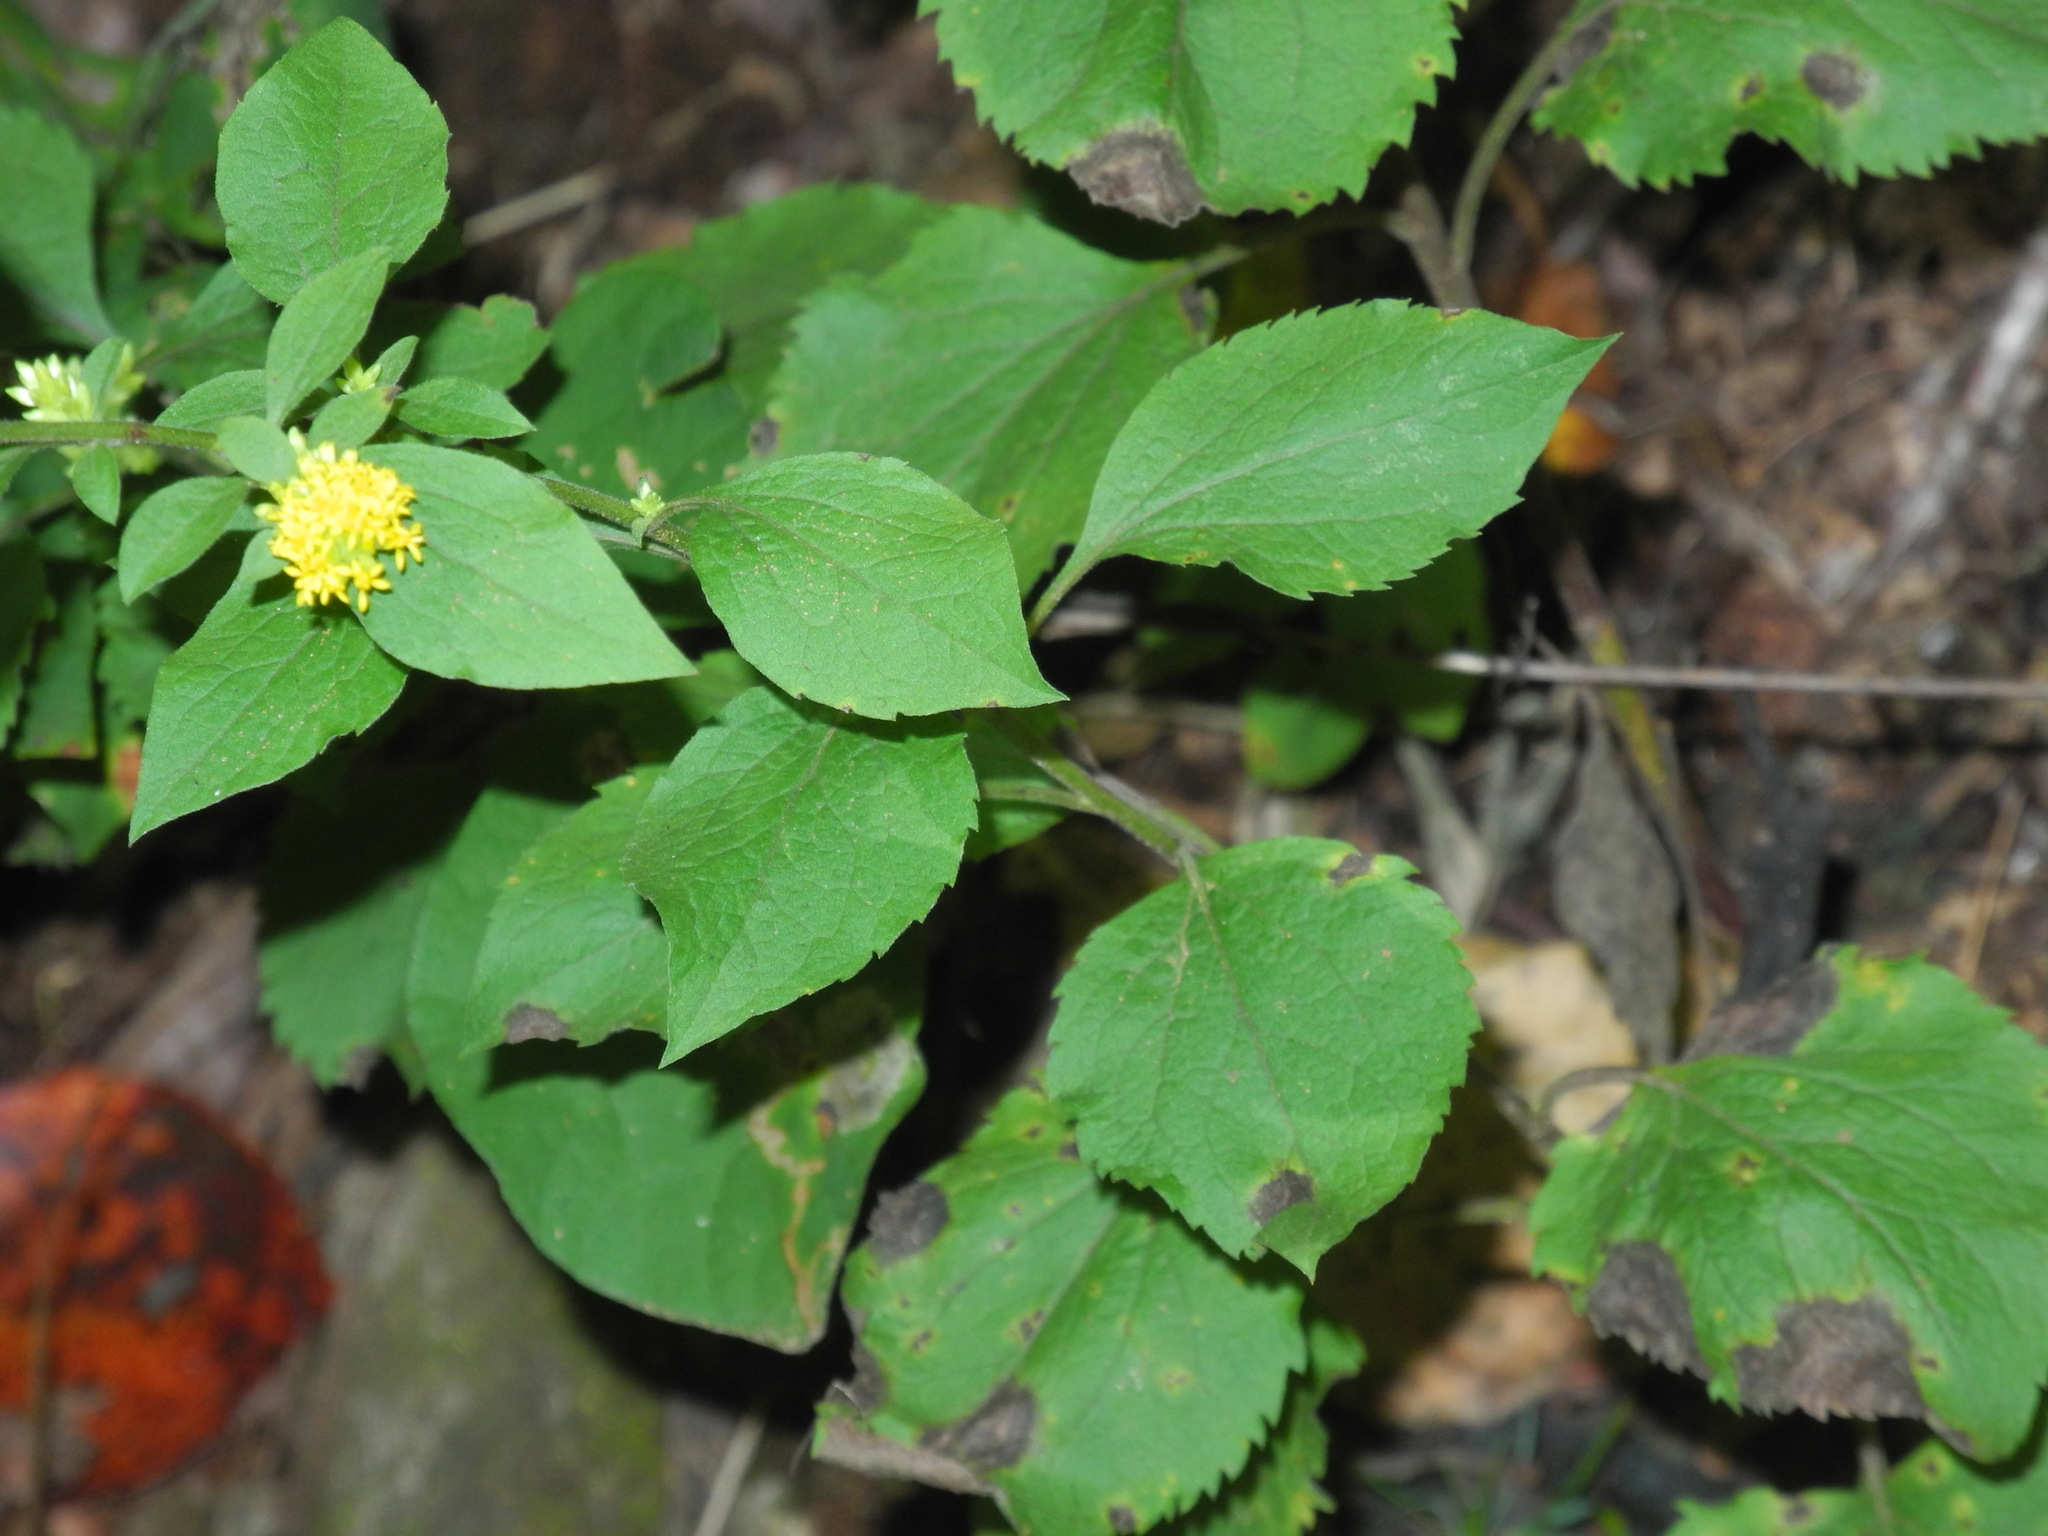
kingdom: Plantae
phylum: Tracheophyta
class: Magnoliopsida
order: Asterales
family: Asteraceae
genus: Solidago
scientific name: Solidago sphacelata
